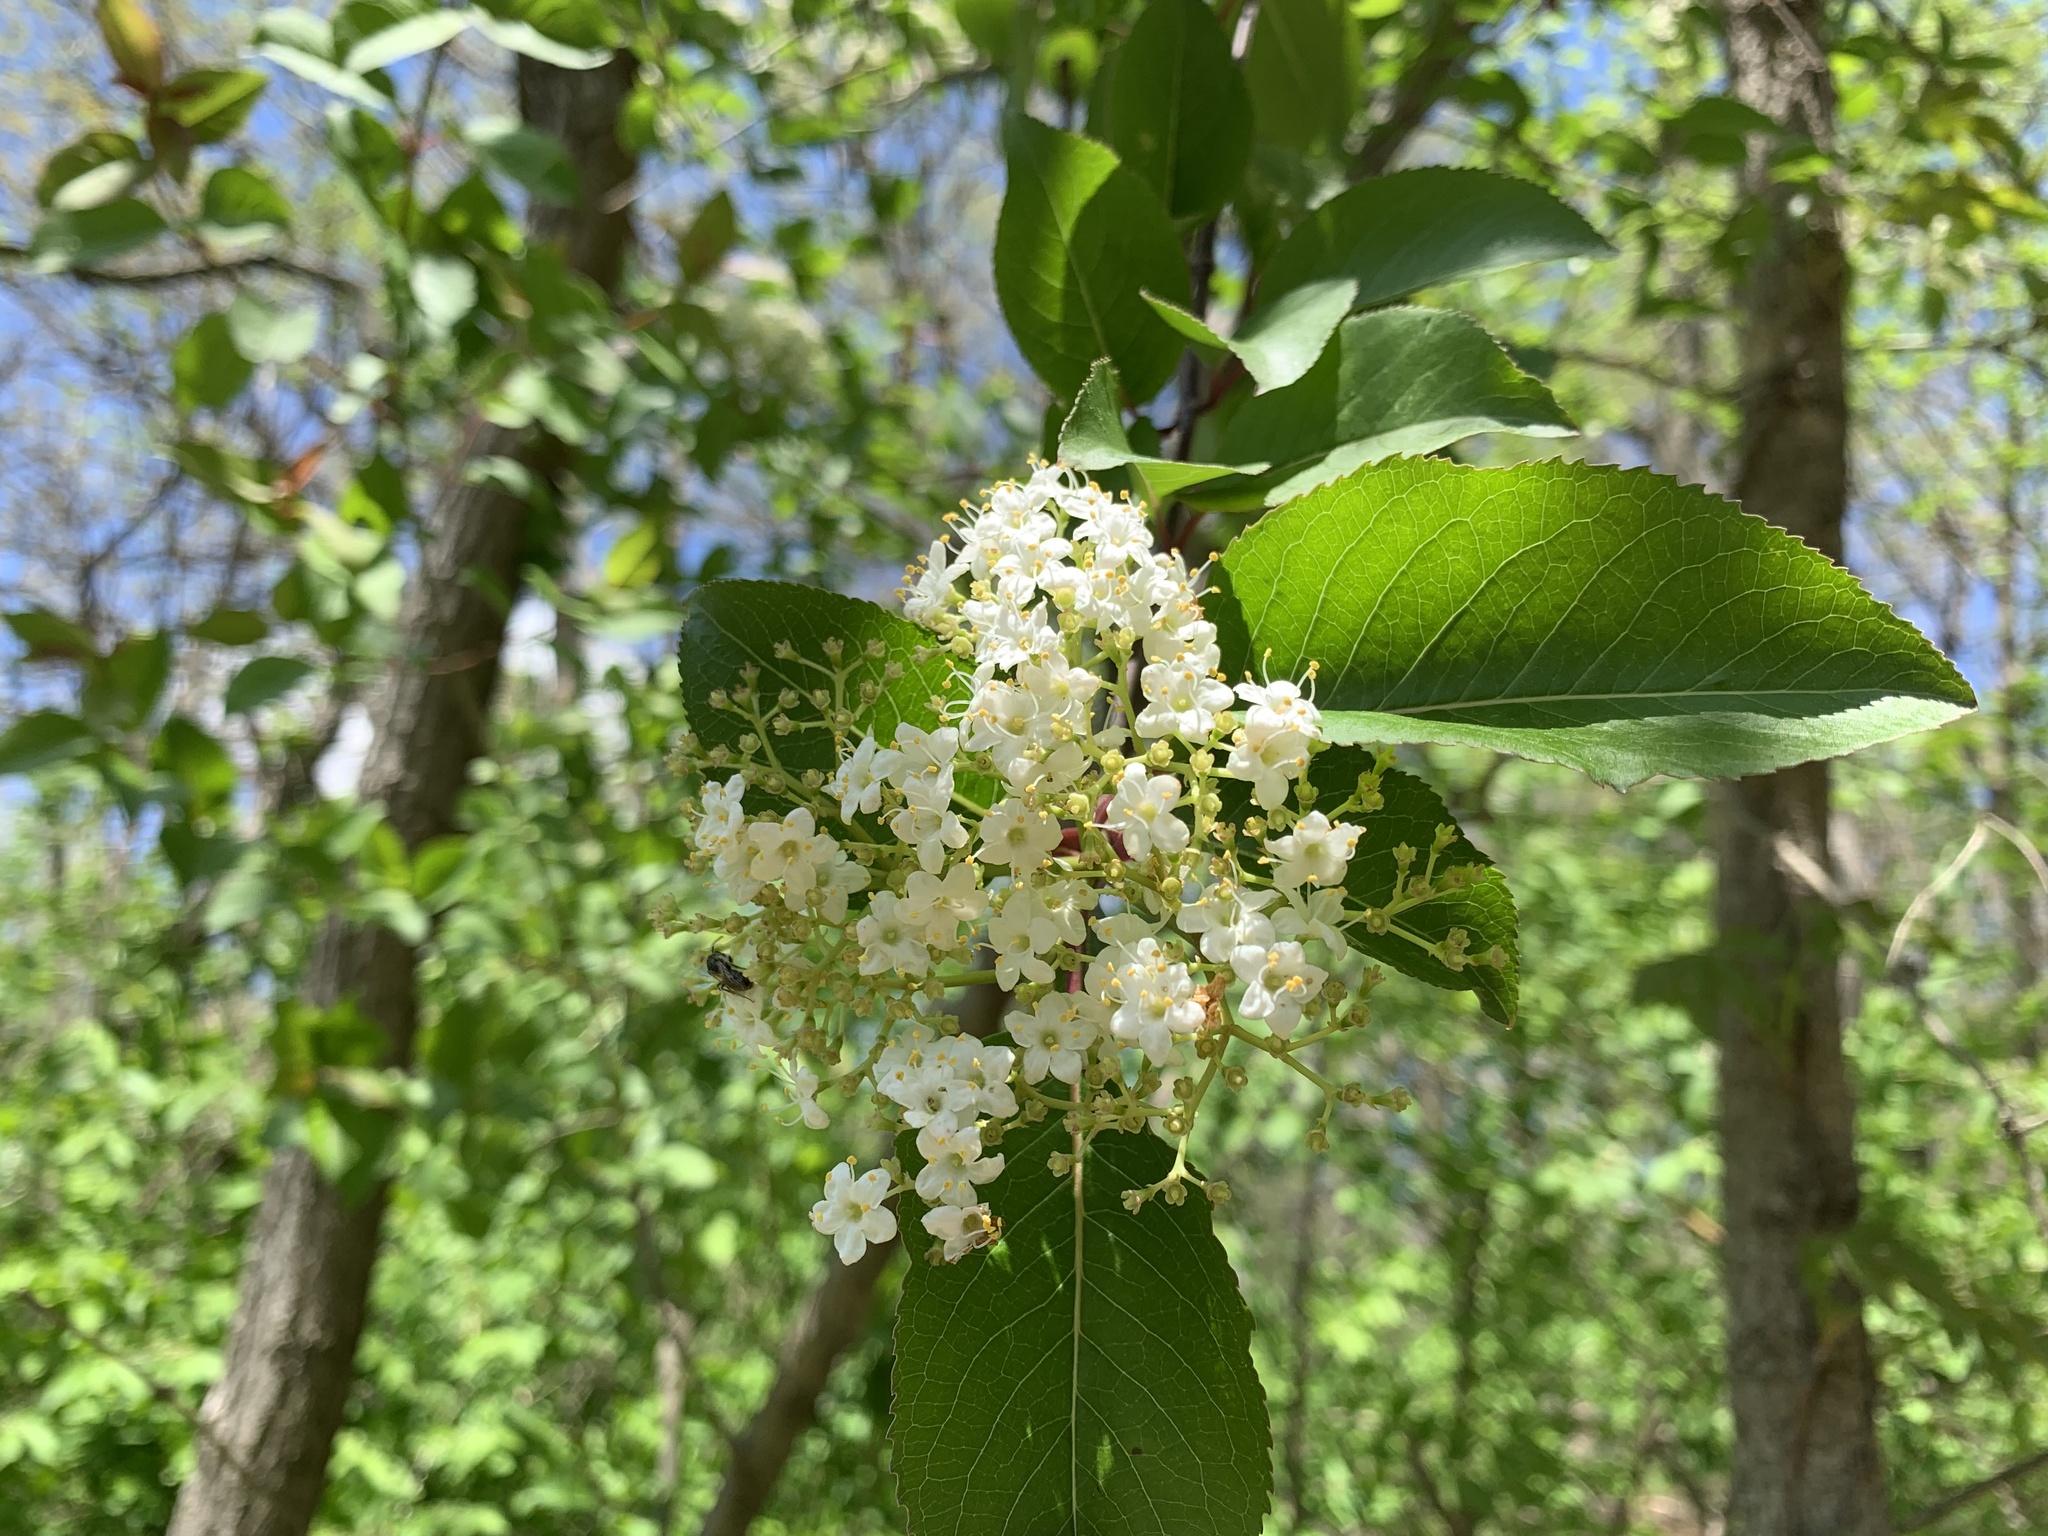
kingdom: Plantae
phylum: Tracheophyta
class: Magnoliopsida
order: Dipsacales
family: Viburnaceae
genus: Viburnum
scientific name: Viburnum prunifolium
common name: Black haw
